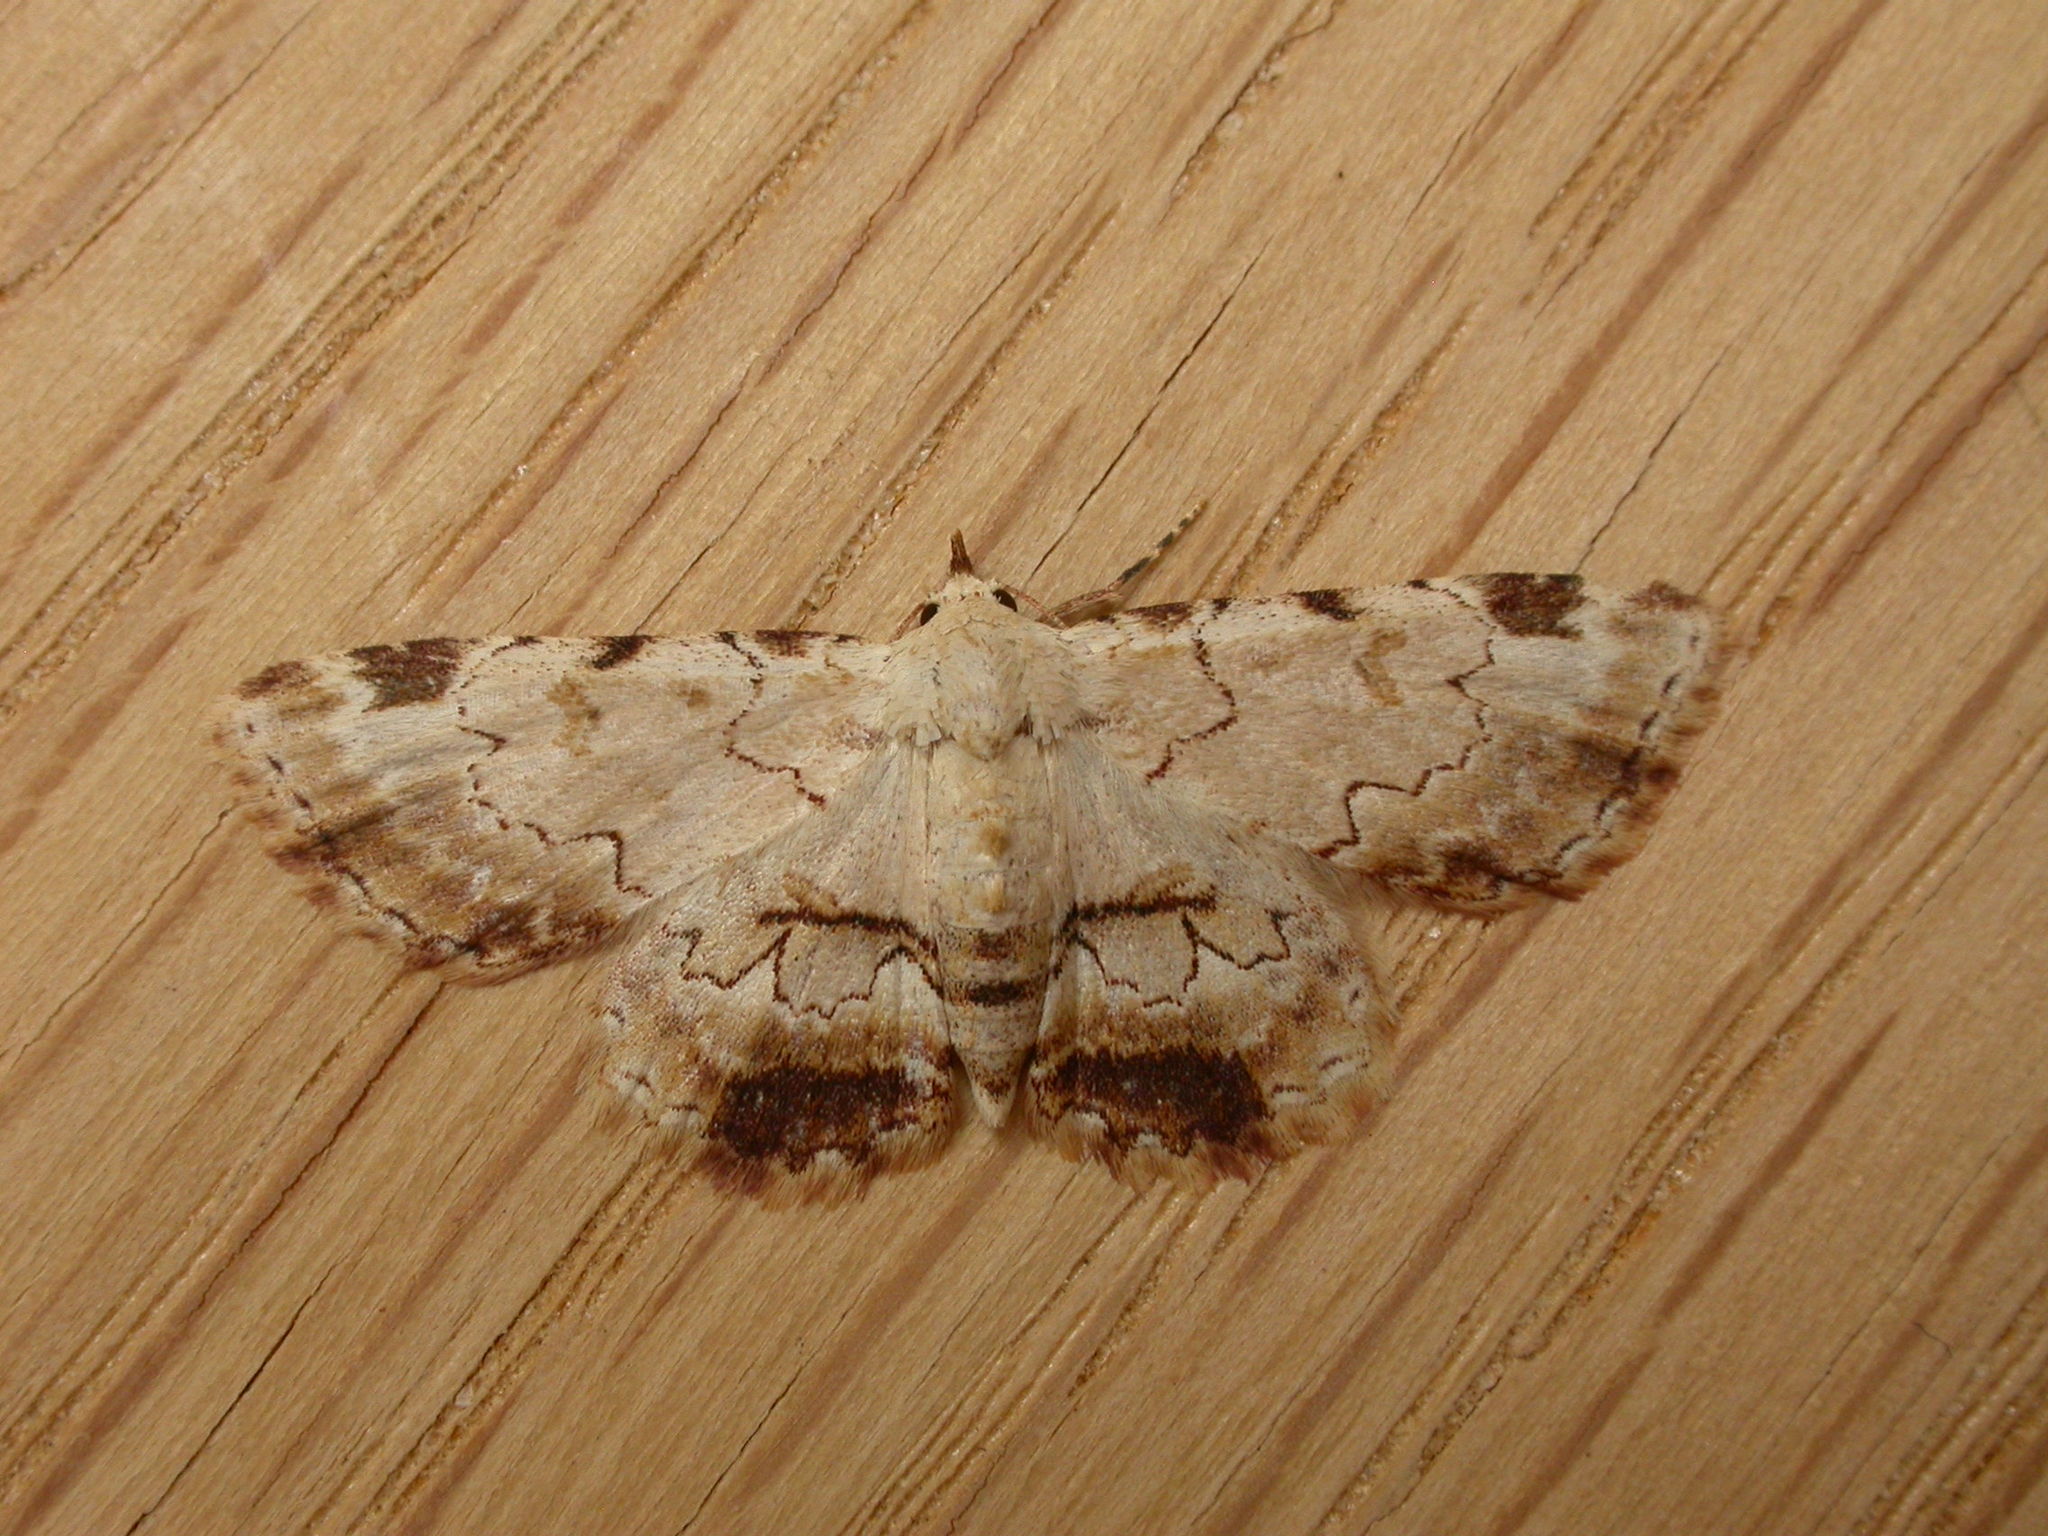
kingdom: Animalia
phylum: Arthropoda
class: Insecta
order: Lepidoptera
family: Erebidae
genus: Sandava
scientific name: Sandava xylistis
